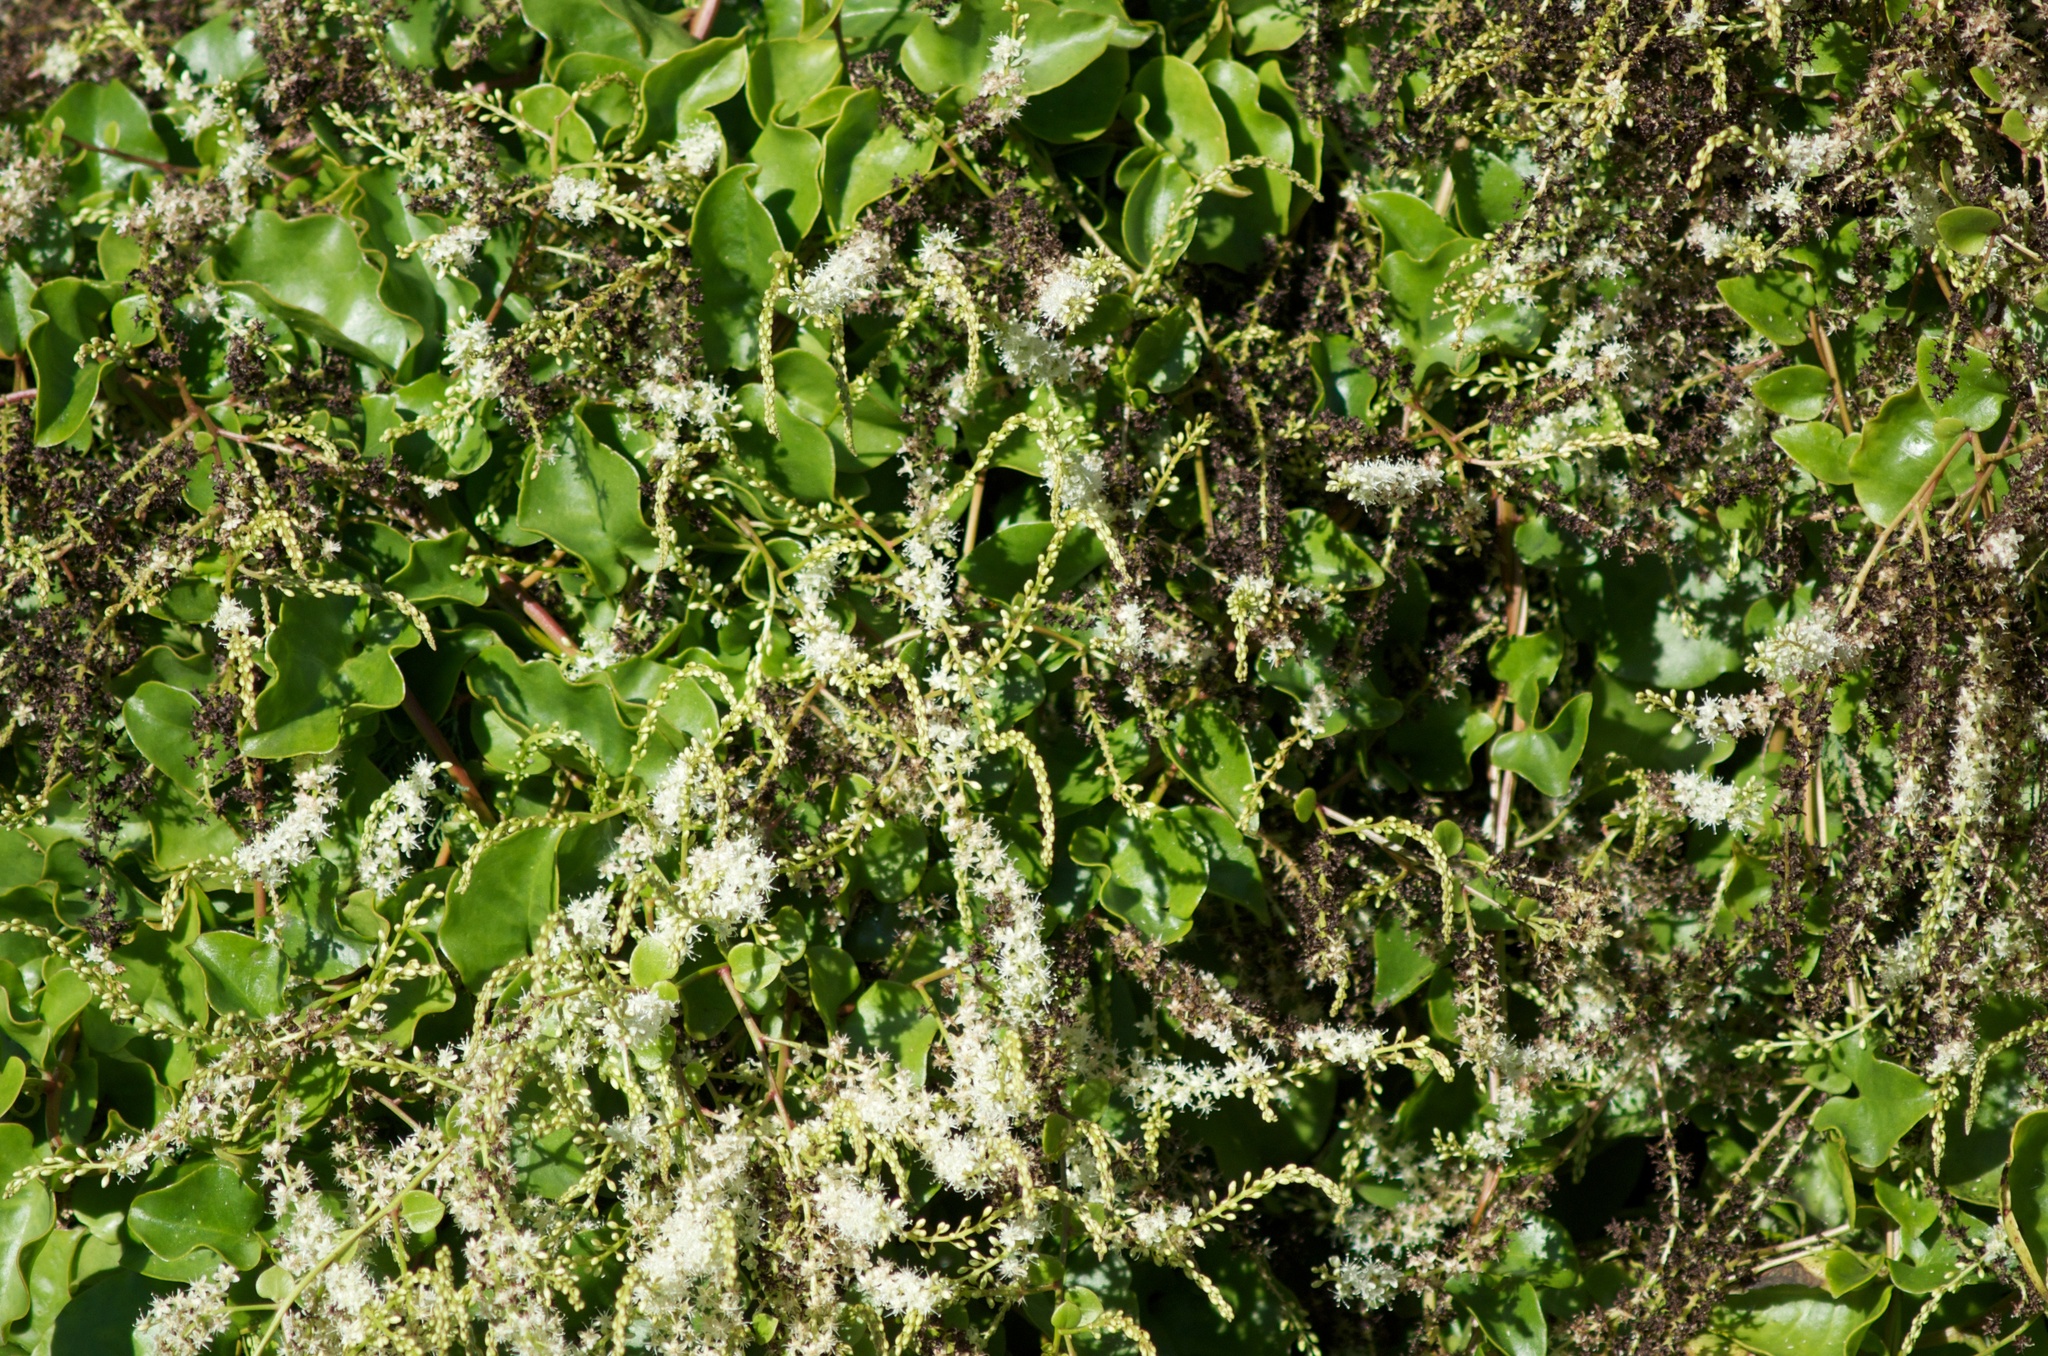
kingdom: Plantae
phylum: Tracheophyta
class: Magnoliopsida
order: Caryophyllales
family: Basellaceae
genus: Anredera
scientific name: Anredera cordifolia
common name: Heartleaf madeiravine
